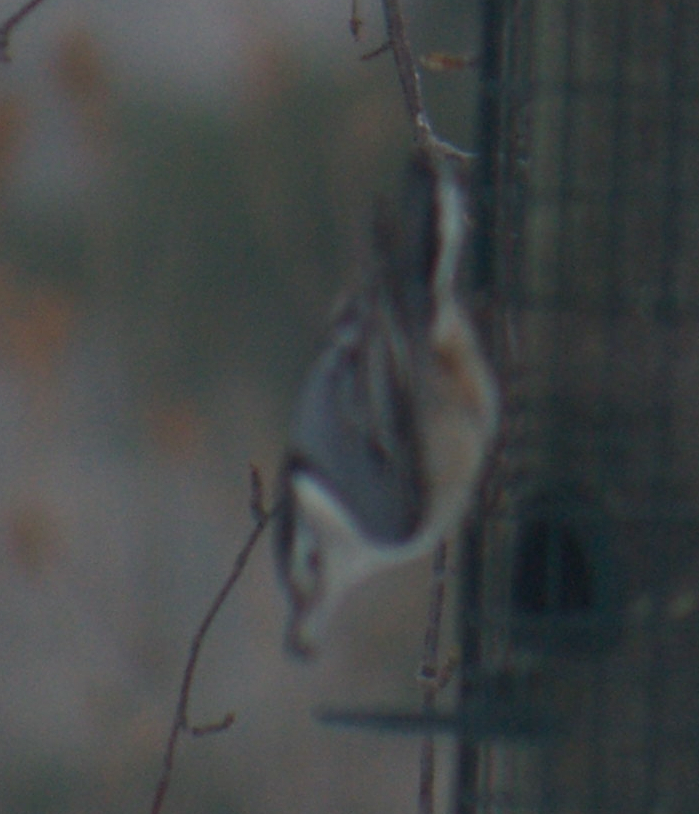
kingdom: Animalia
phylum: Chordata
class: Aves
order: Passeriformes
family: Sittidae
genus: Sitta
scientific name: Sitta carolinensis
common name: White-breasted nuthatch
